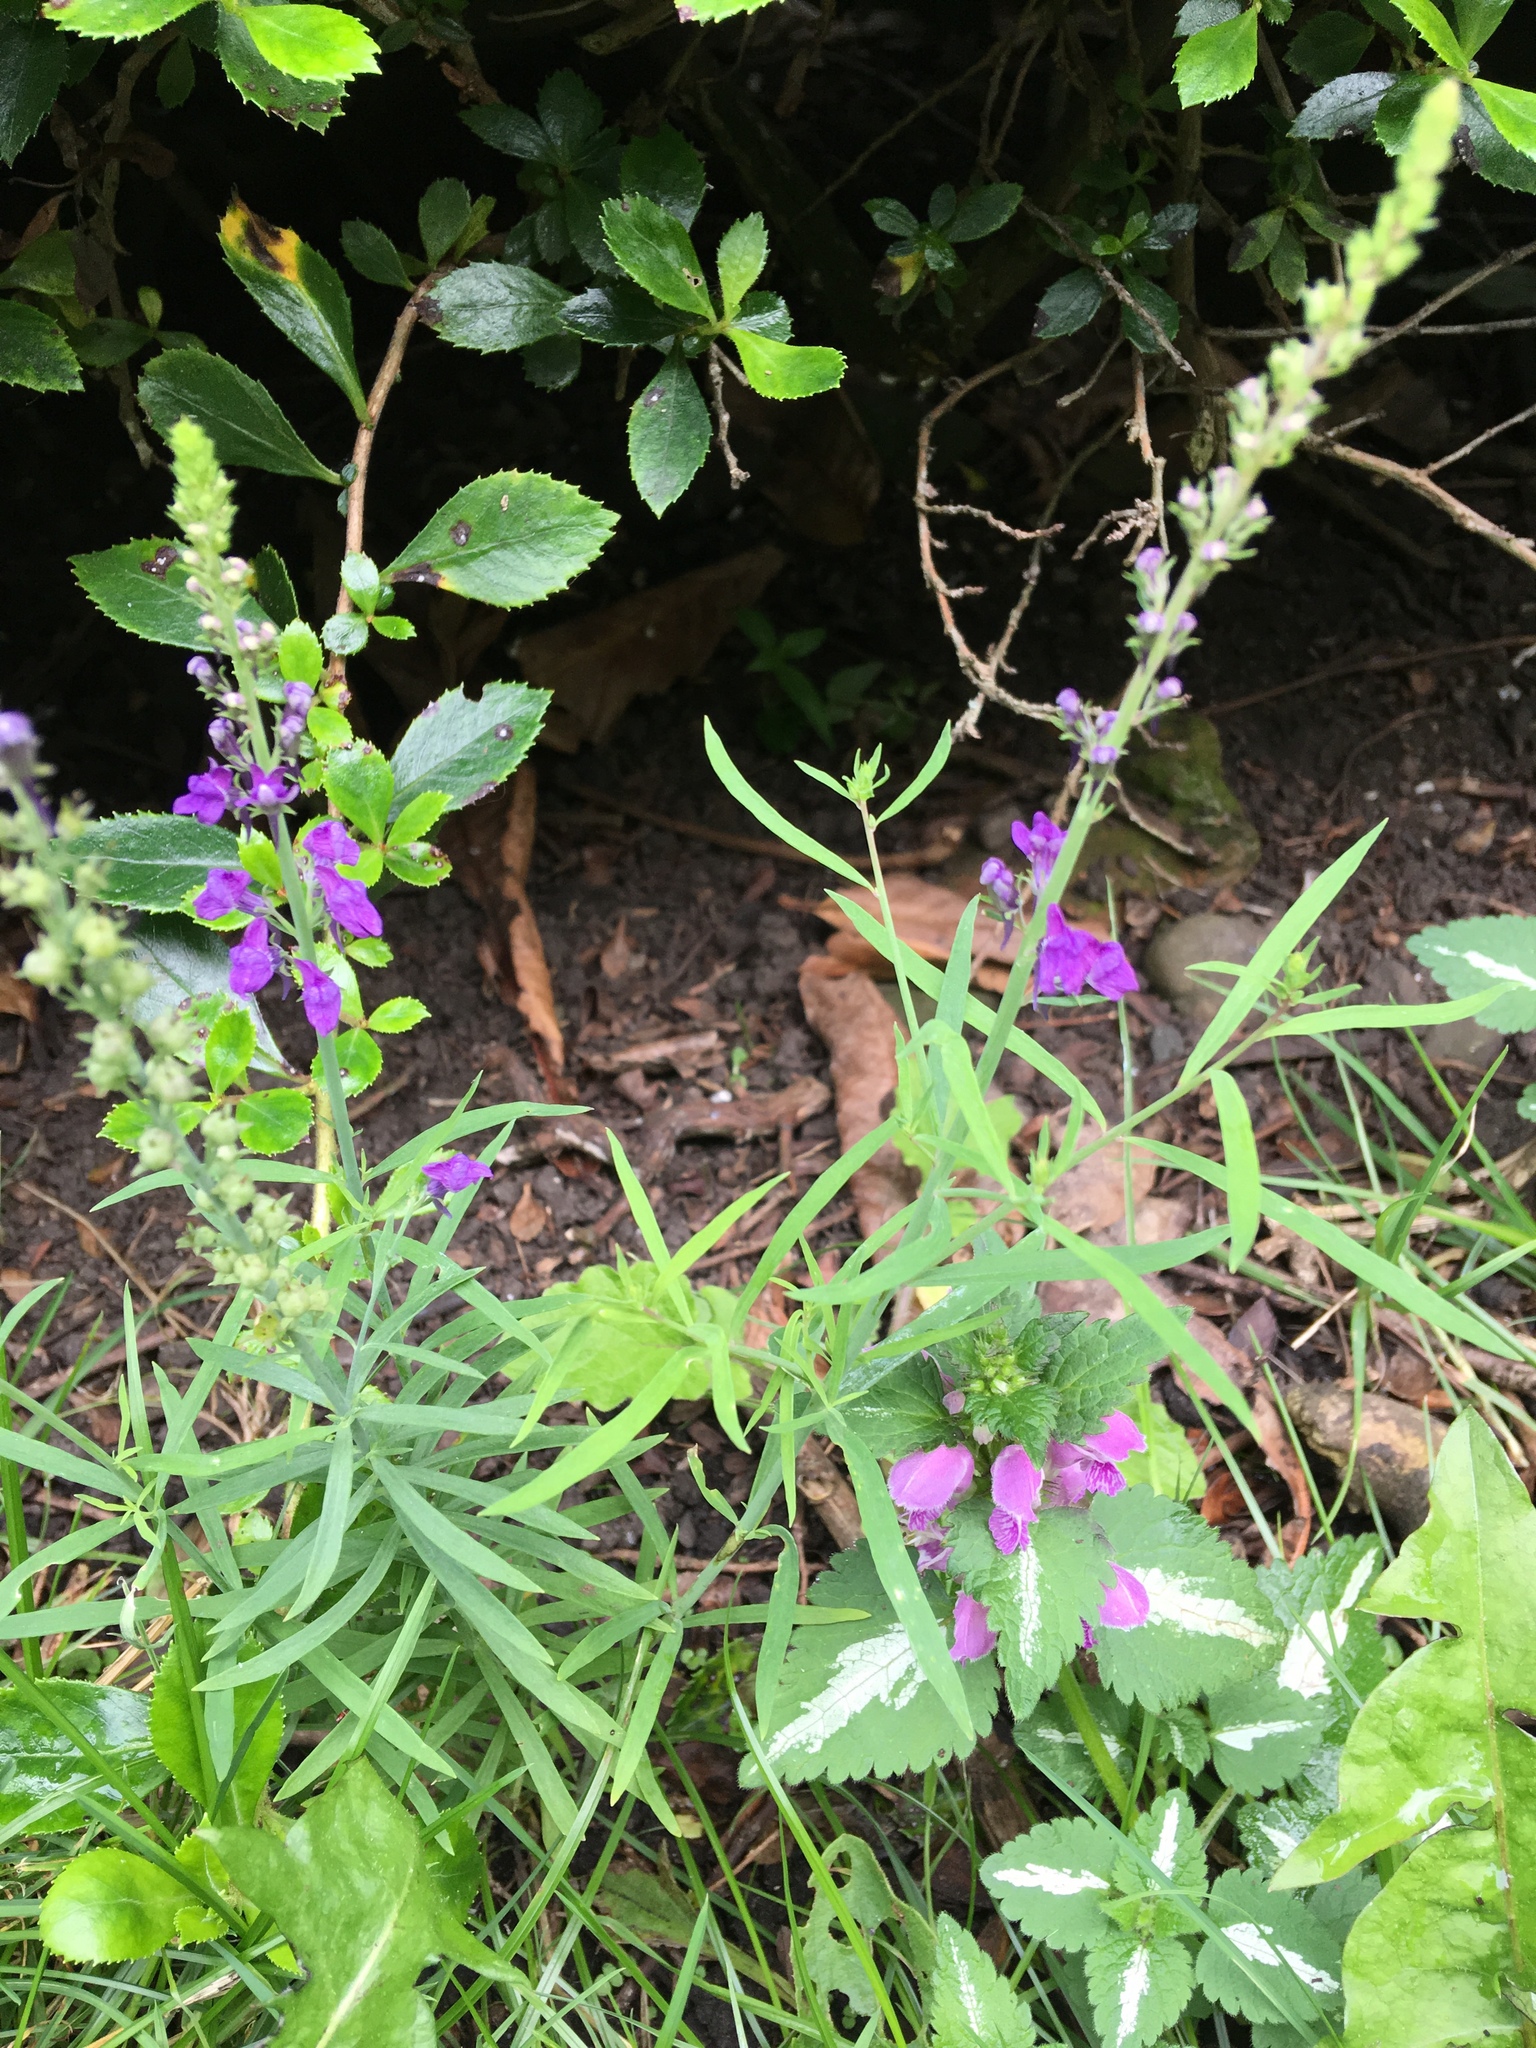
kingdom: Plantae
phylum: Tracheophyta
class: Magnoliopsida
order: Lamiales
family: Plantaginaceae
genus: Linaria
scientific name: Linaria purpurea
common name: Purple toadflax
